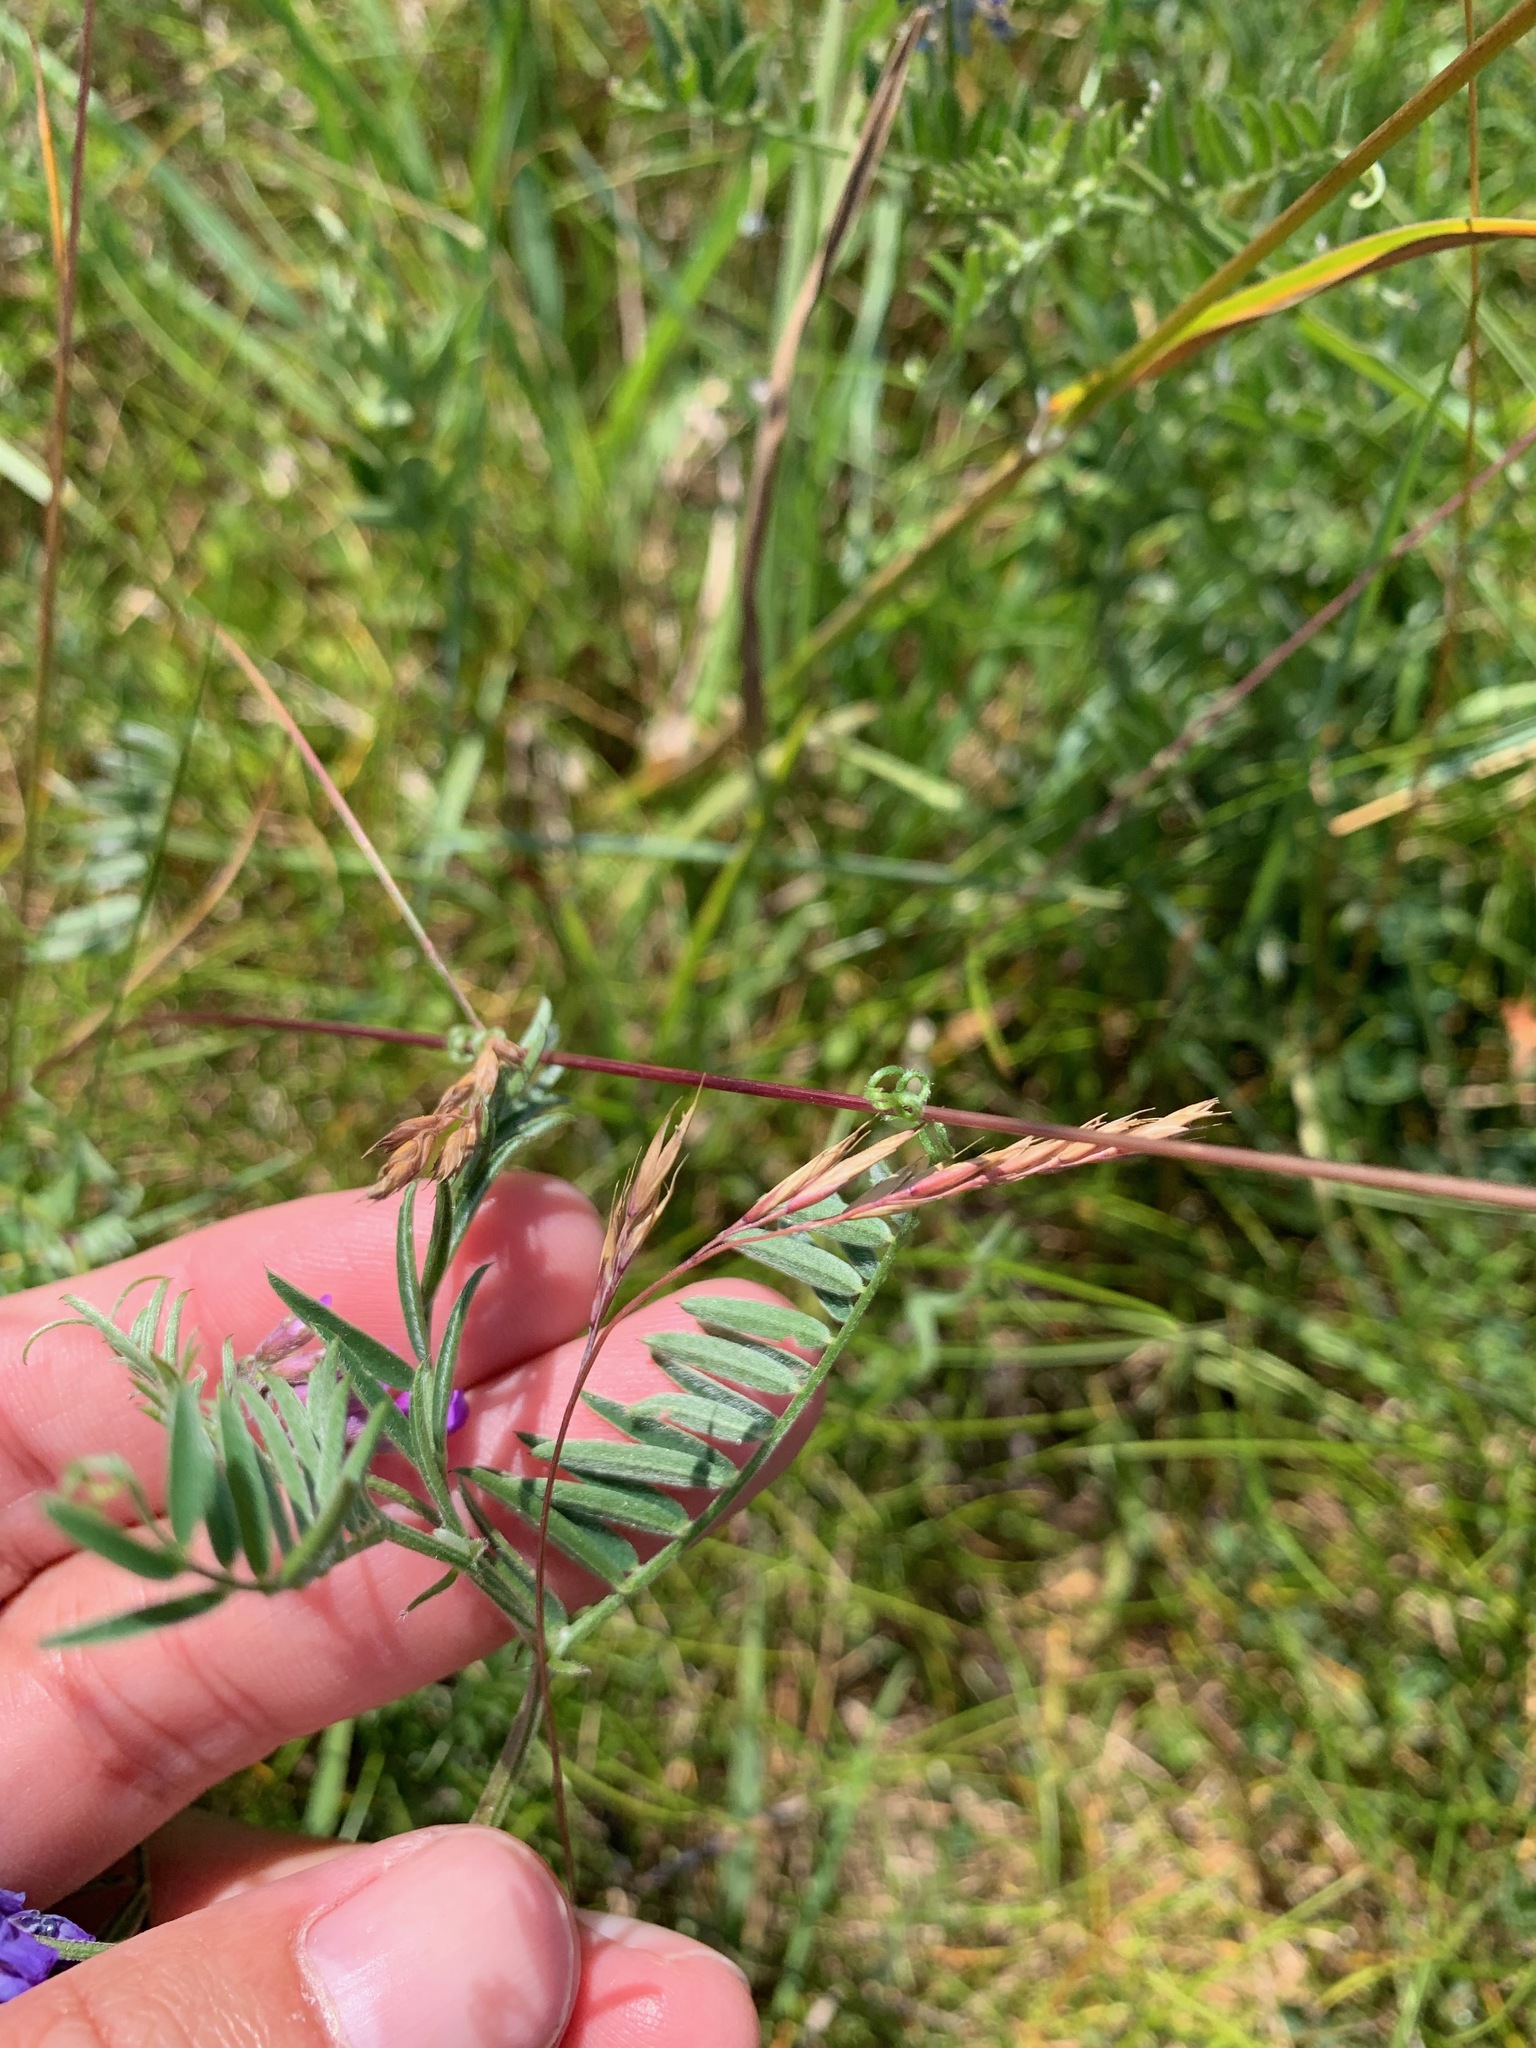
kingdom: Plantae
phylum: Tracheophyta
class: Magnoliopsida
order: Fabales
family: Fabaceae
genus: Vicia
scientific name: Vicia cracca
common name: Bird vetch
